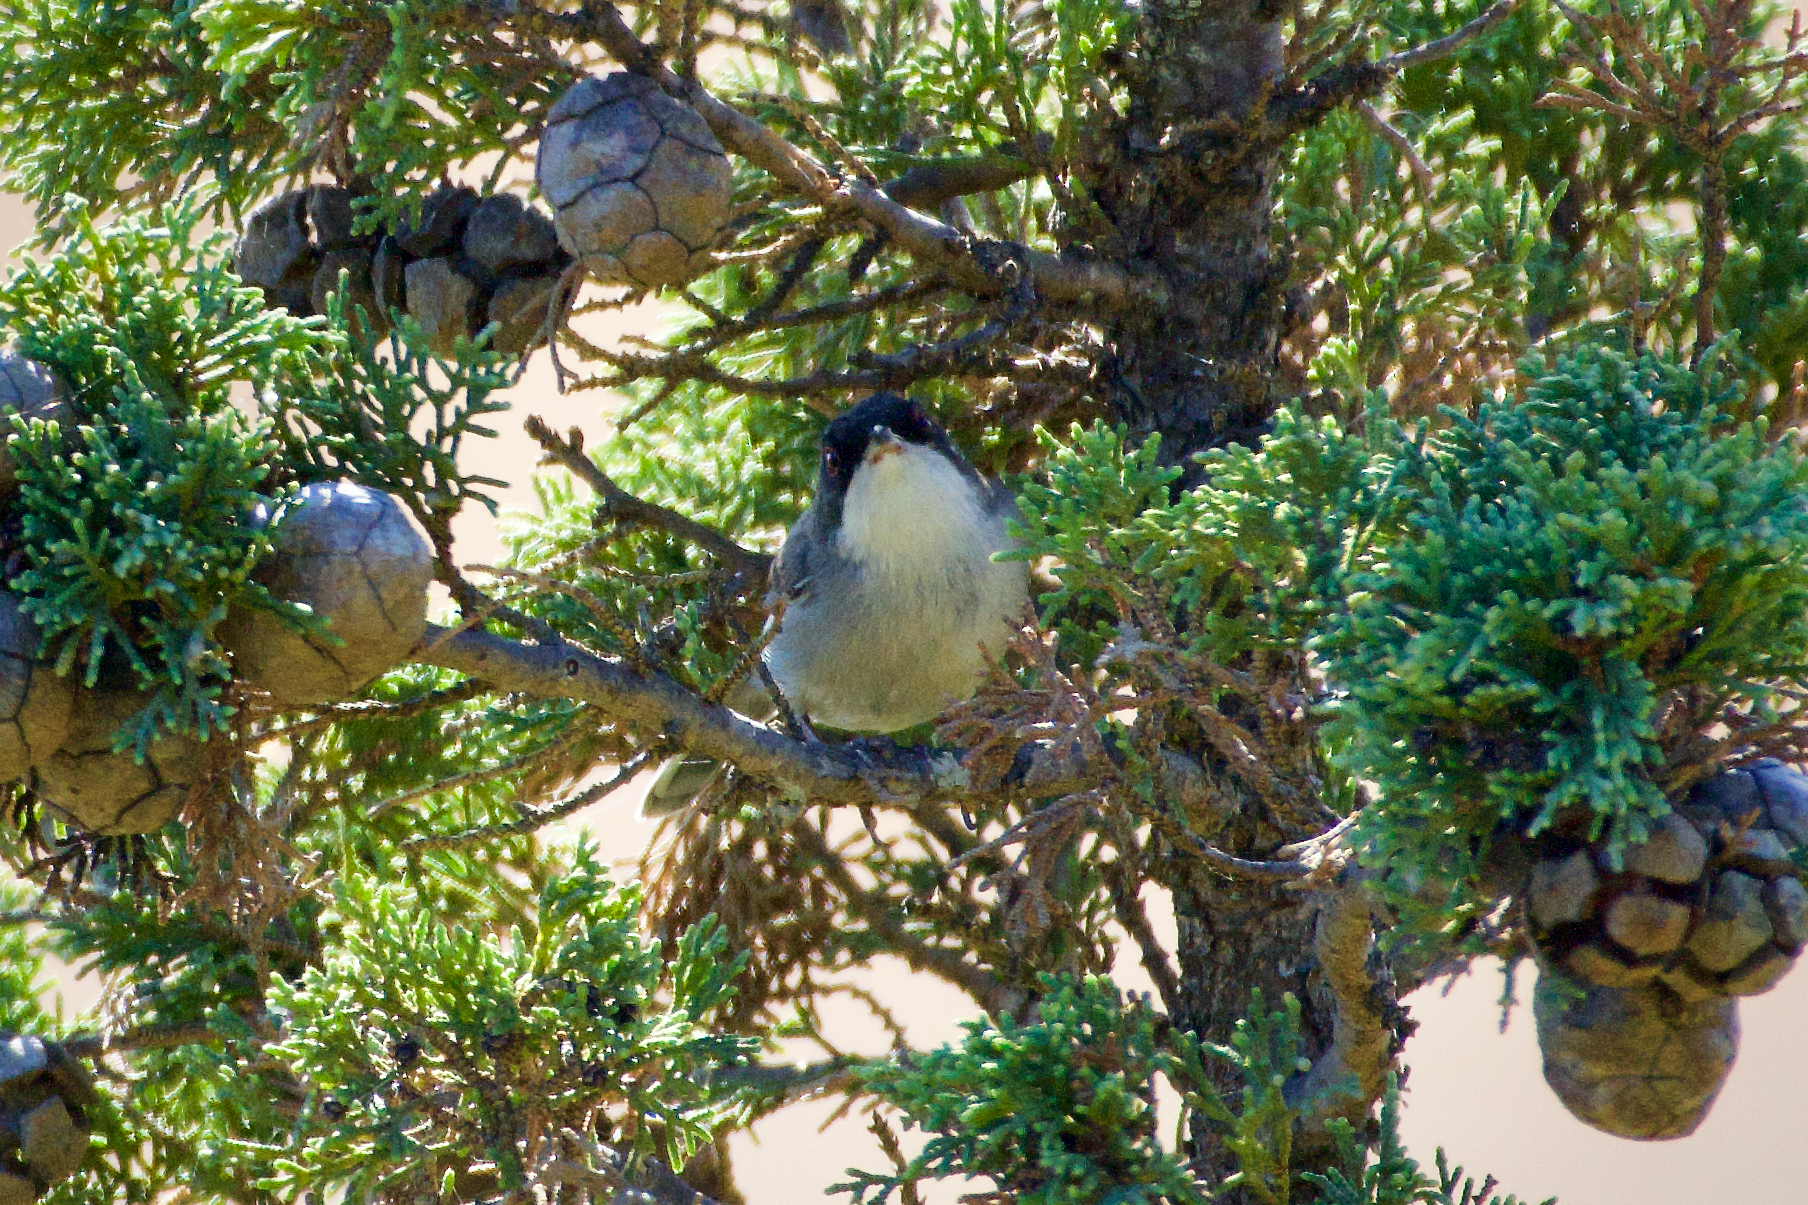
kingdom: Animalia
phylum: Chordata
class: Aves
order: Passeriformes
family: Sylviidae
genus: Curruca
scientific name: Curruca melanocephala
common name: Sardinian warbler
